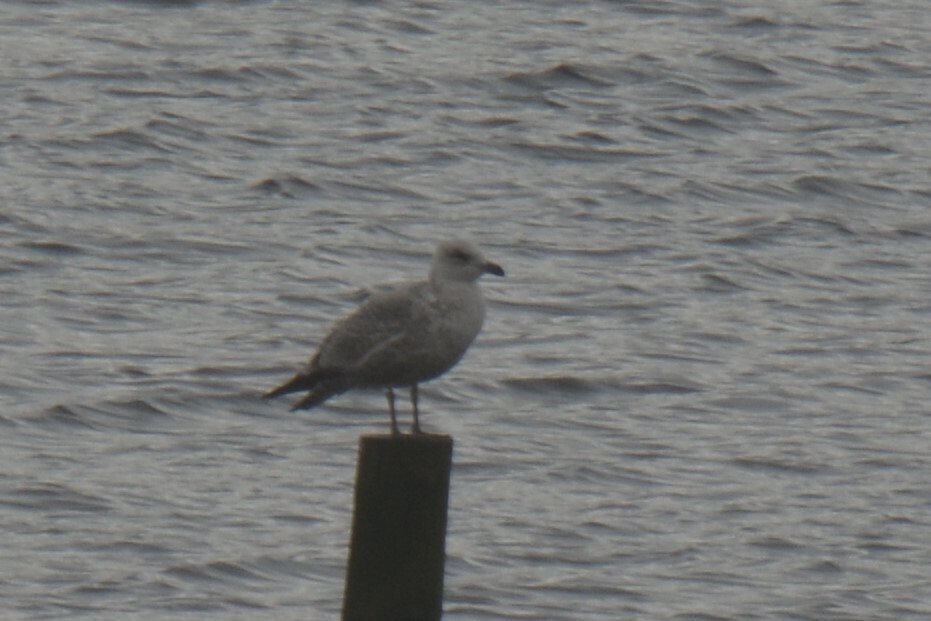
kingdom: Animalia
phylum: Chordata
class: Aves
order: Charadriiformes
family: Laridae
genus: Larus
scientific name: Larus argentatus
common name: Herring gull
